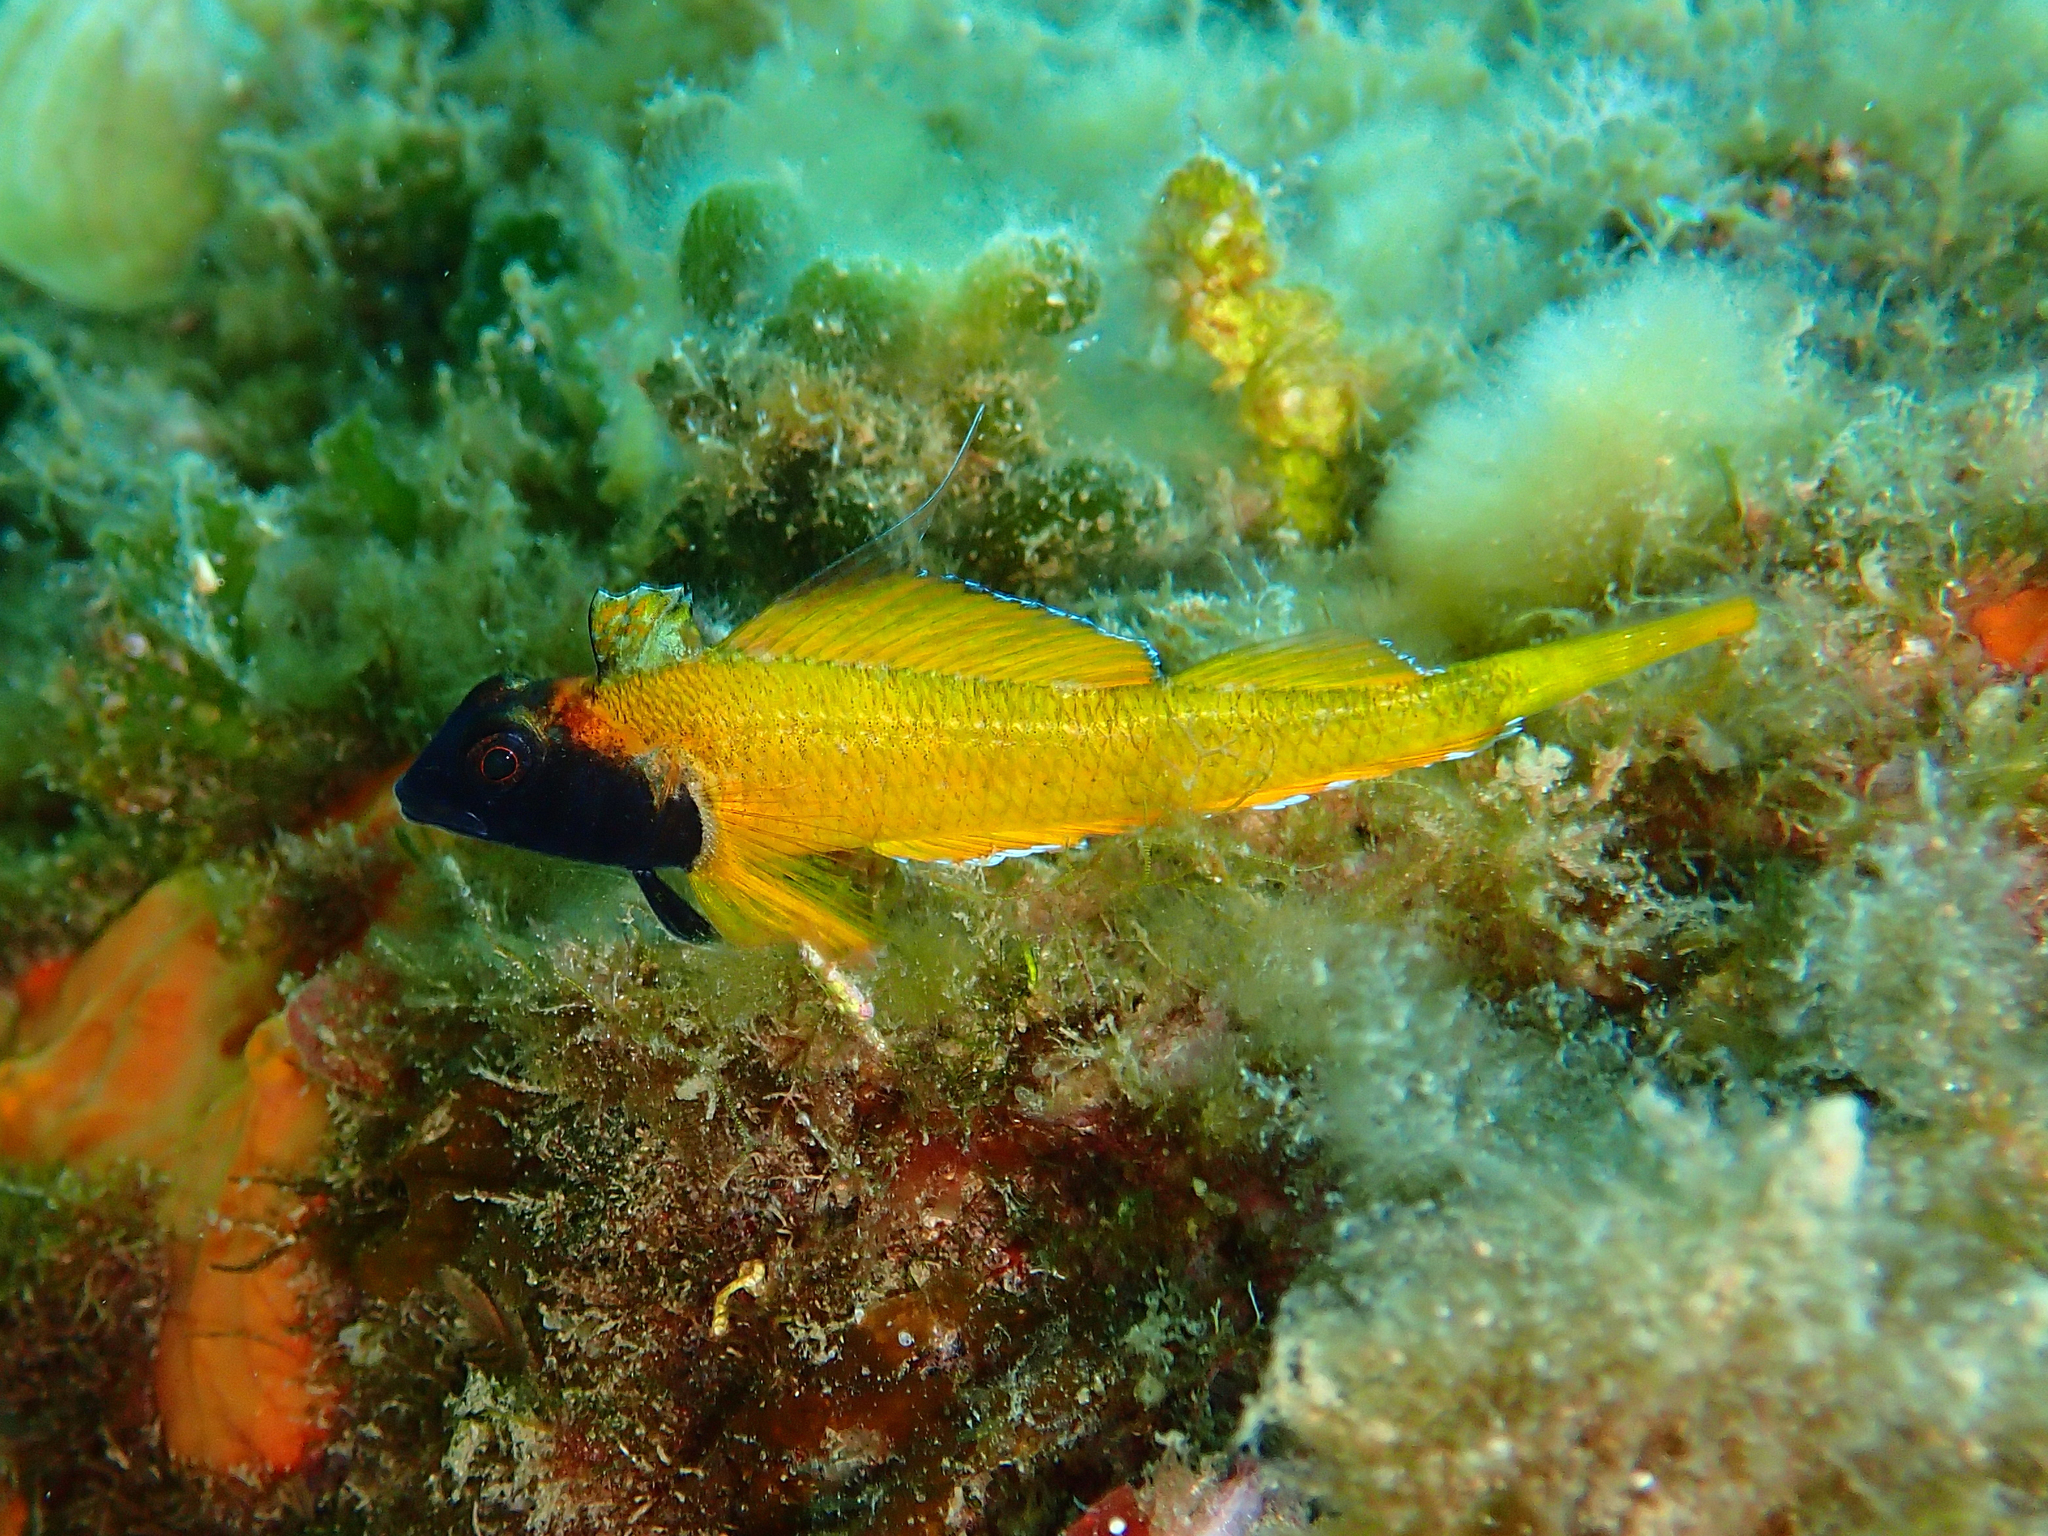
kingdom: Animalia
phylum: Chordata
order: Perciformes
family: Tripterygiidae
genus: Tripterygion
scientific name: Tripterygion delaisi
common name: Black-face blenny
